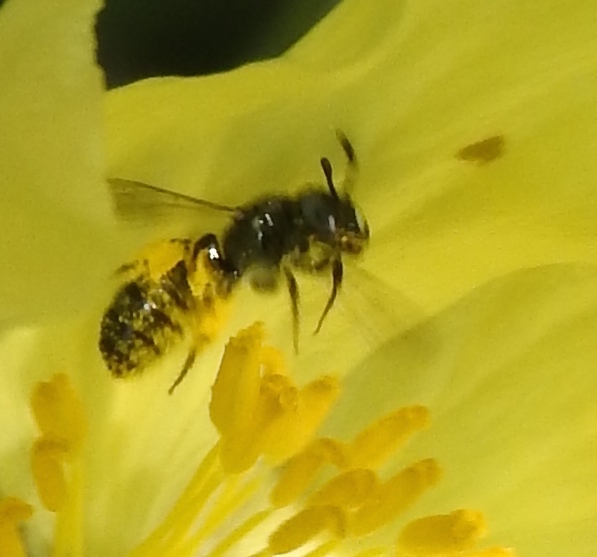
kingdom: Animalia
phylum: Arthropoda
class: Insecta
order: Hymenoptera
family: Apidae
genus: Ceratina
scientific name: Ceratina
